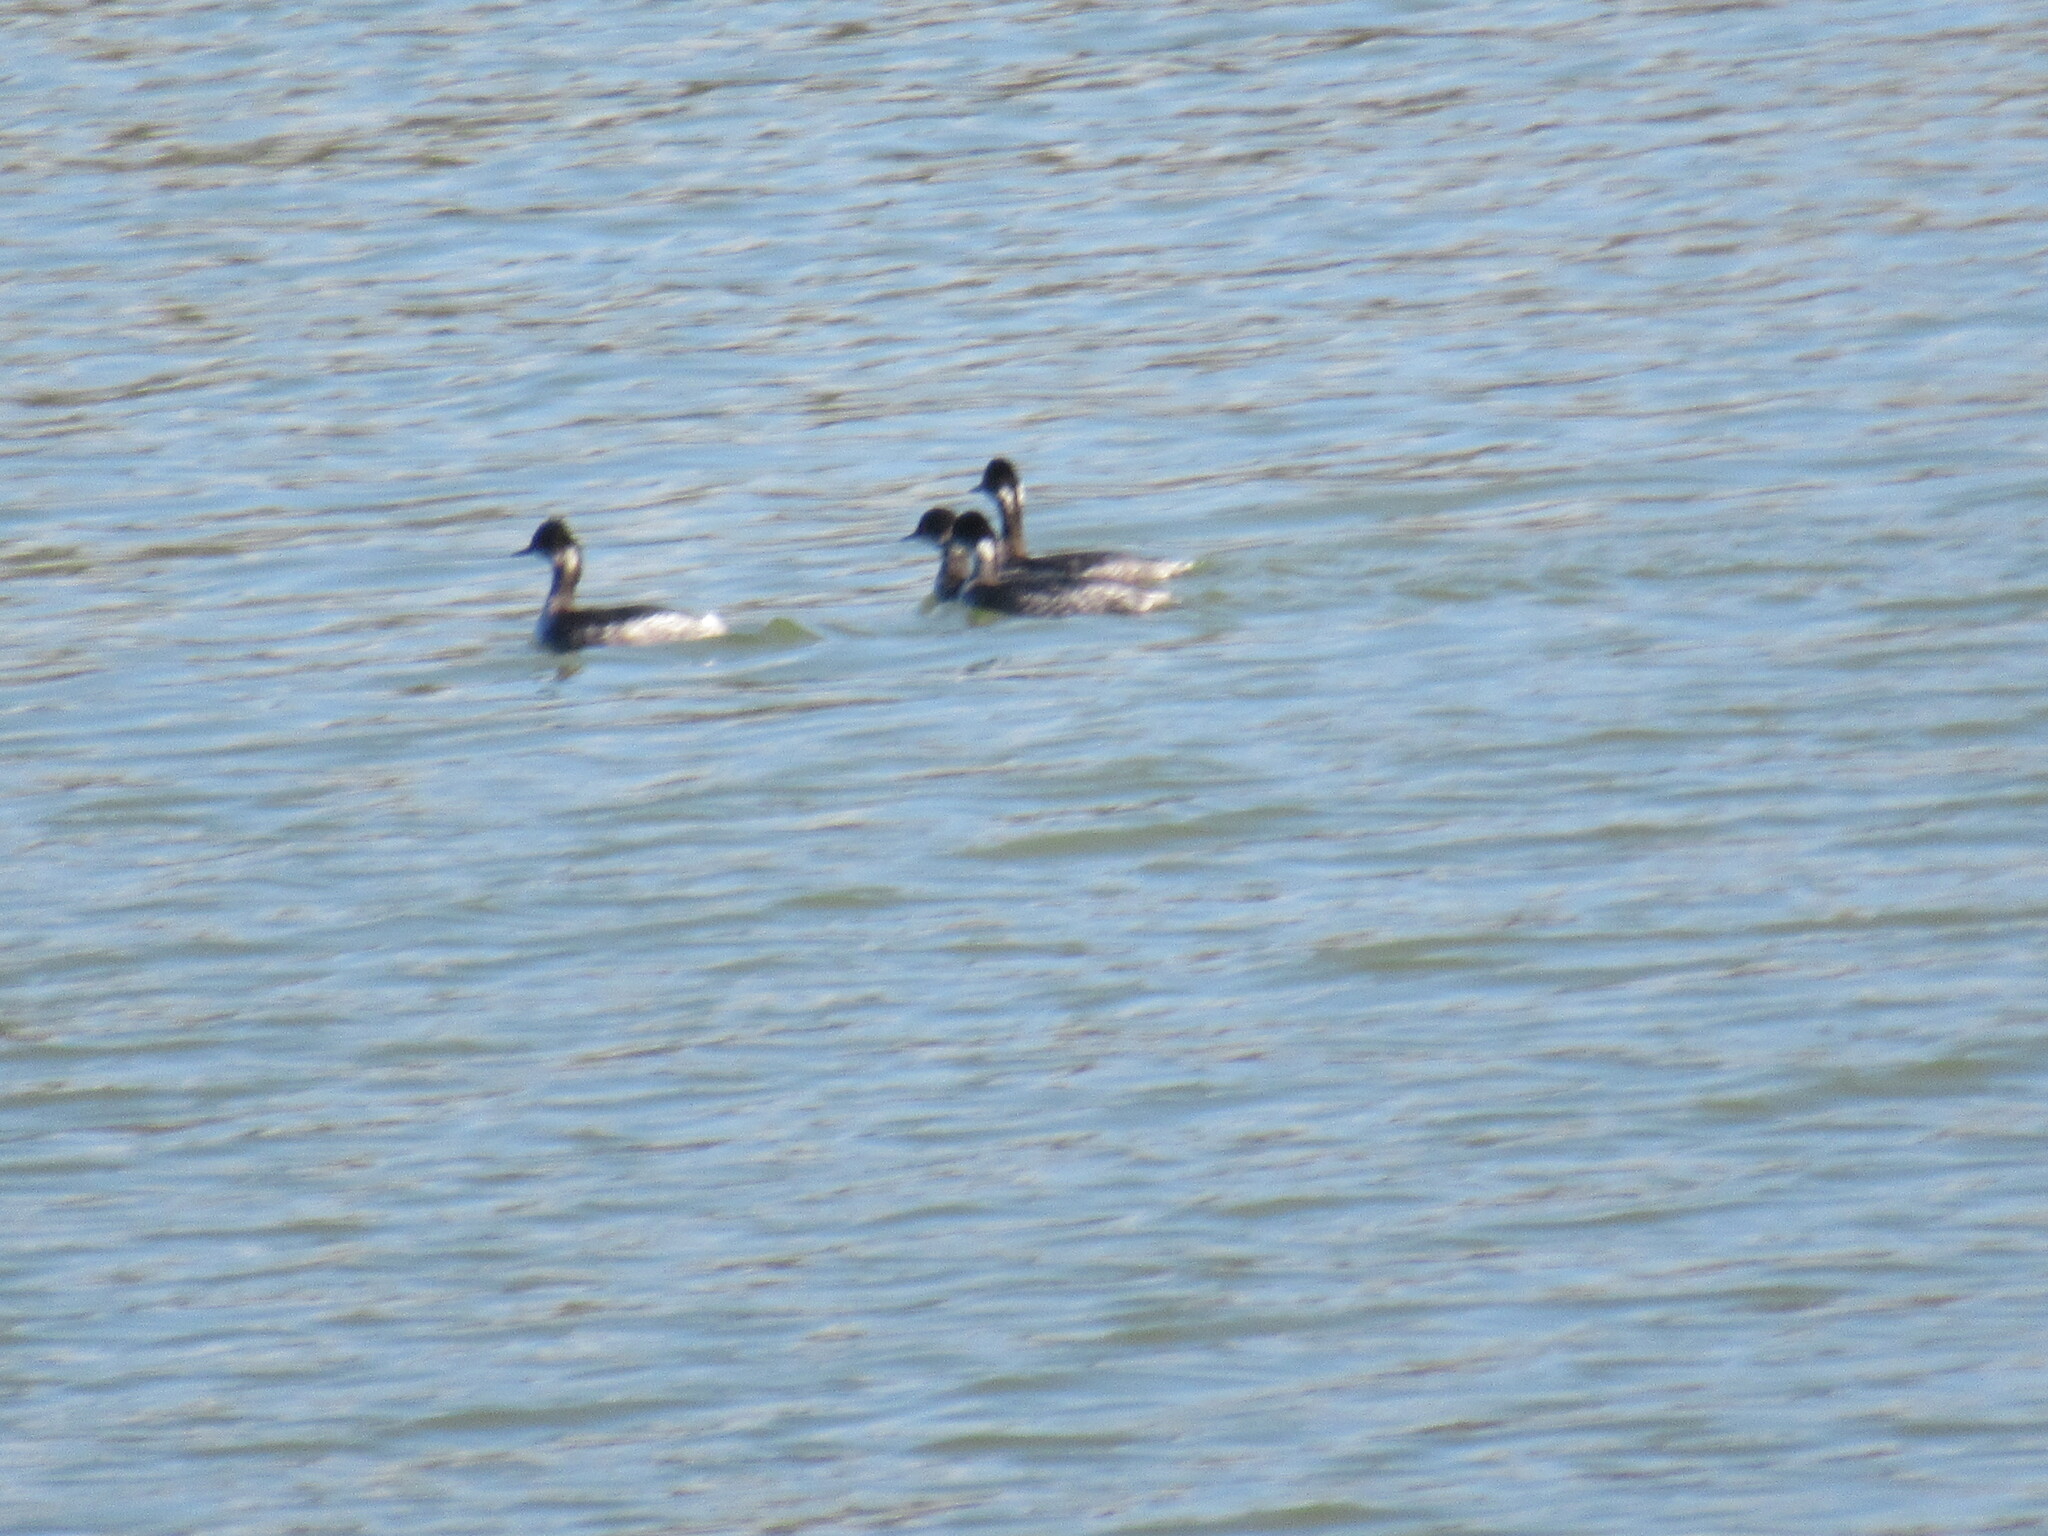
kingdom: Animalia
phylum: Chordata
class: Aves
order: Podicipediformes
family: Podicipedidae
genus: Podiceps
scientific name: Podiceps nigricollis
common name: Black-necked grebe
